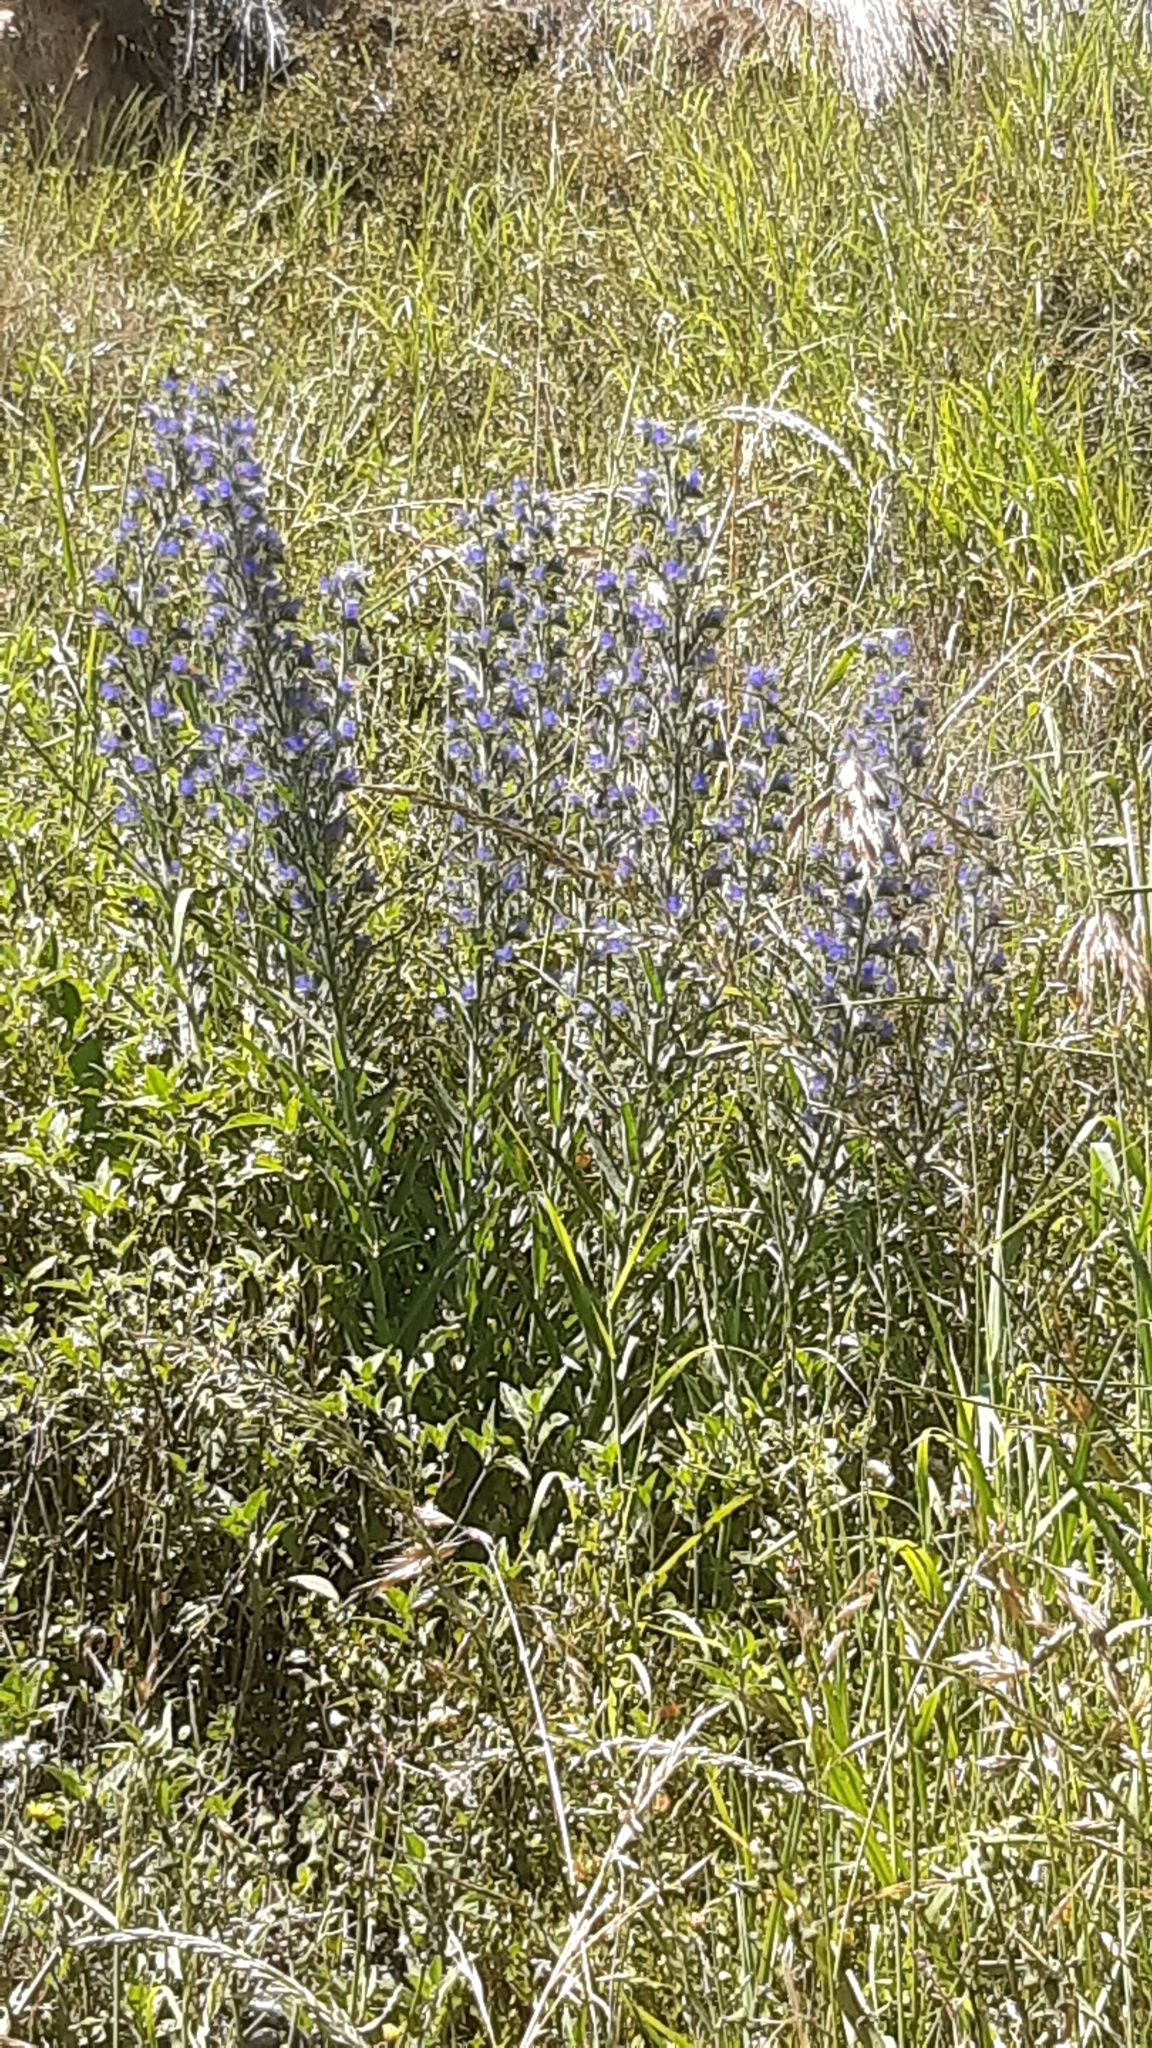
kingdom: Plantae
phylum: Tracheophyta
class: Magnoliopsida
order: Boraginales
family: Boraginaceae
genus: Echium
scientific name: Echium vulgare
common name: Common viper's bugloss
